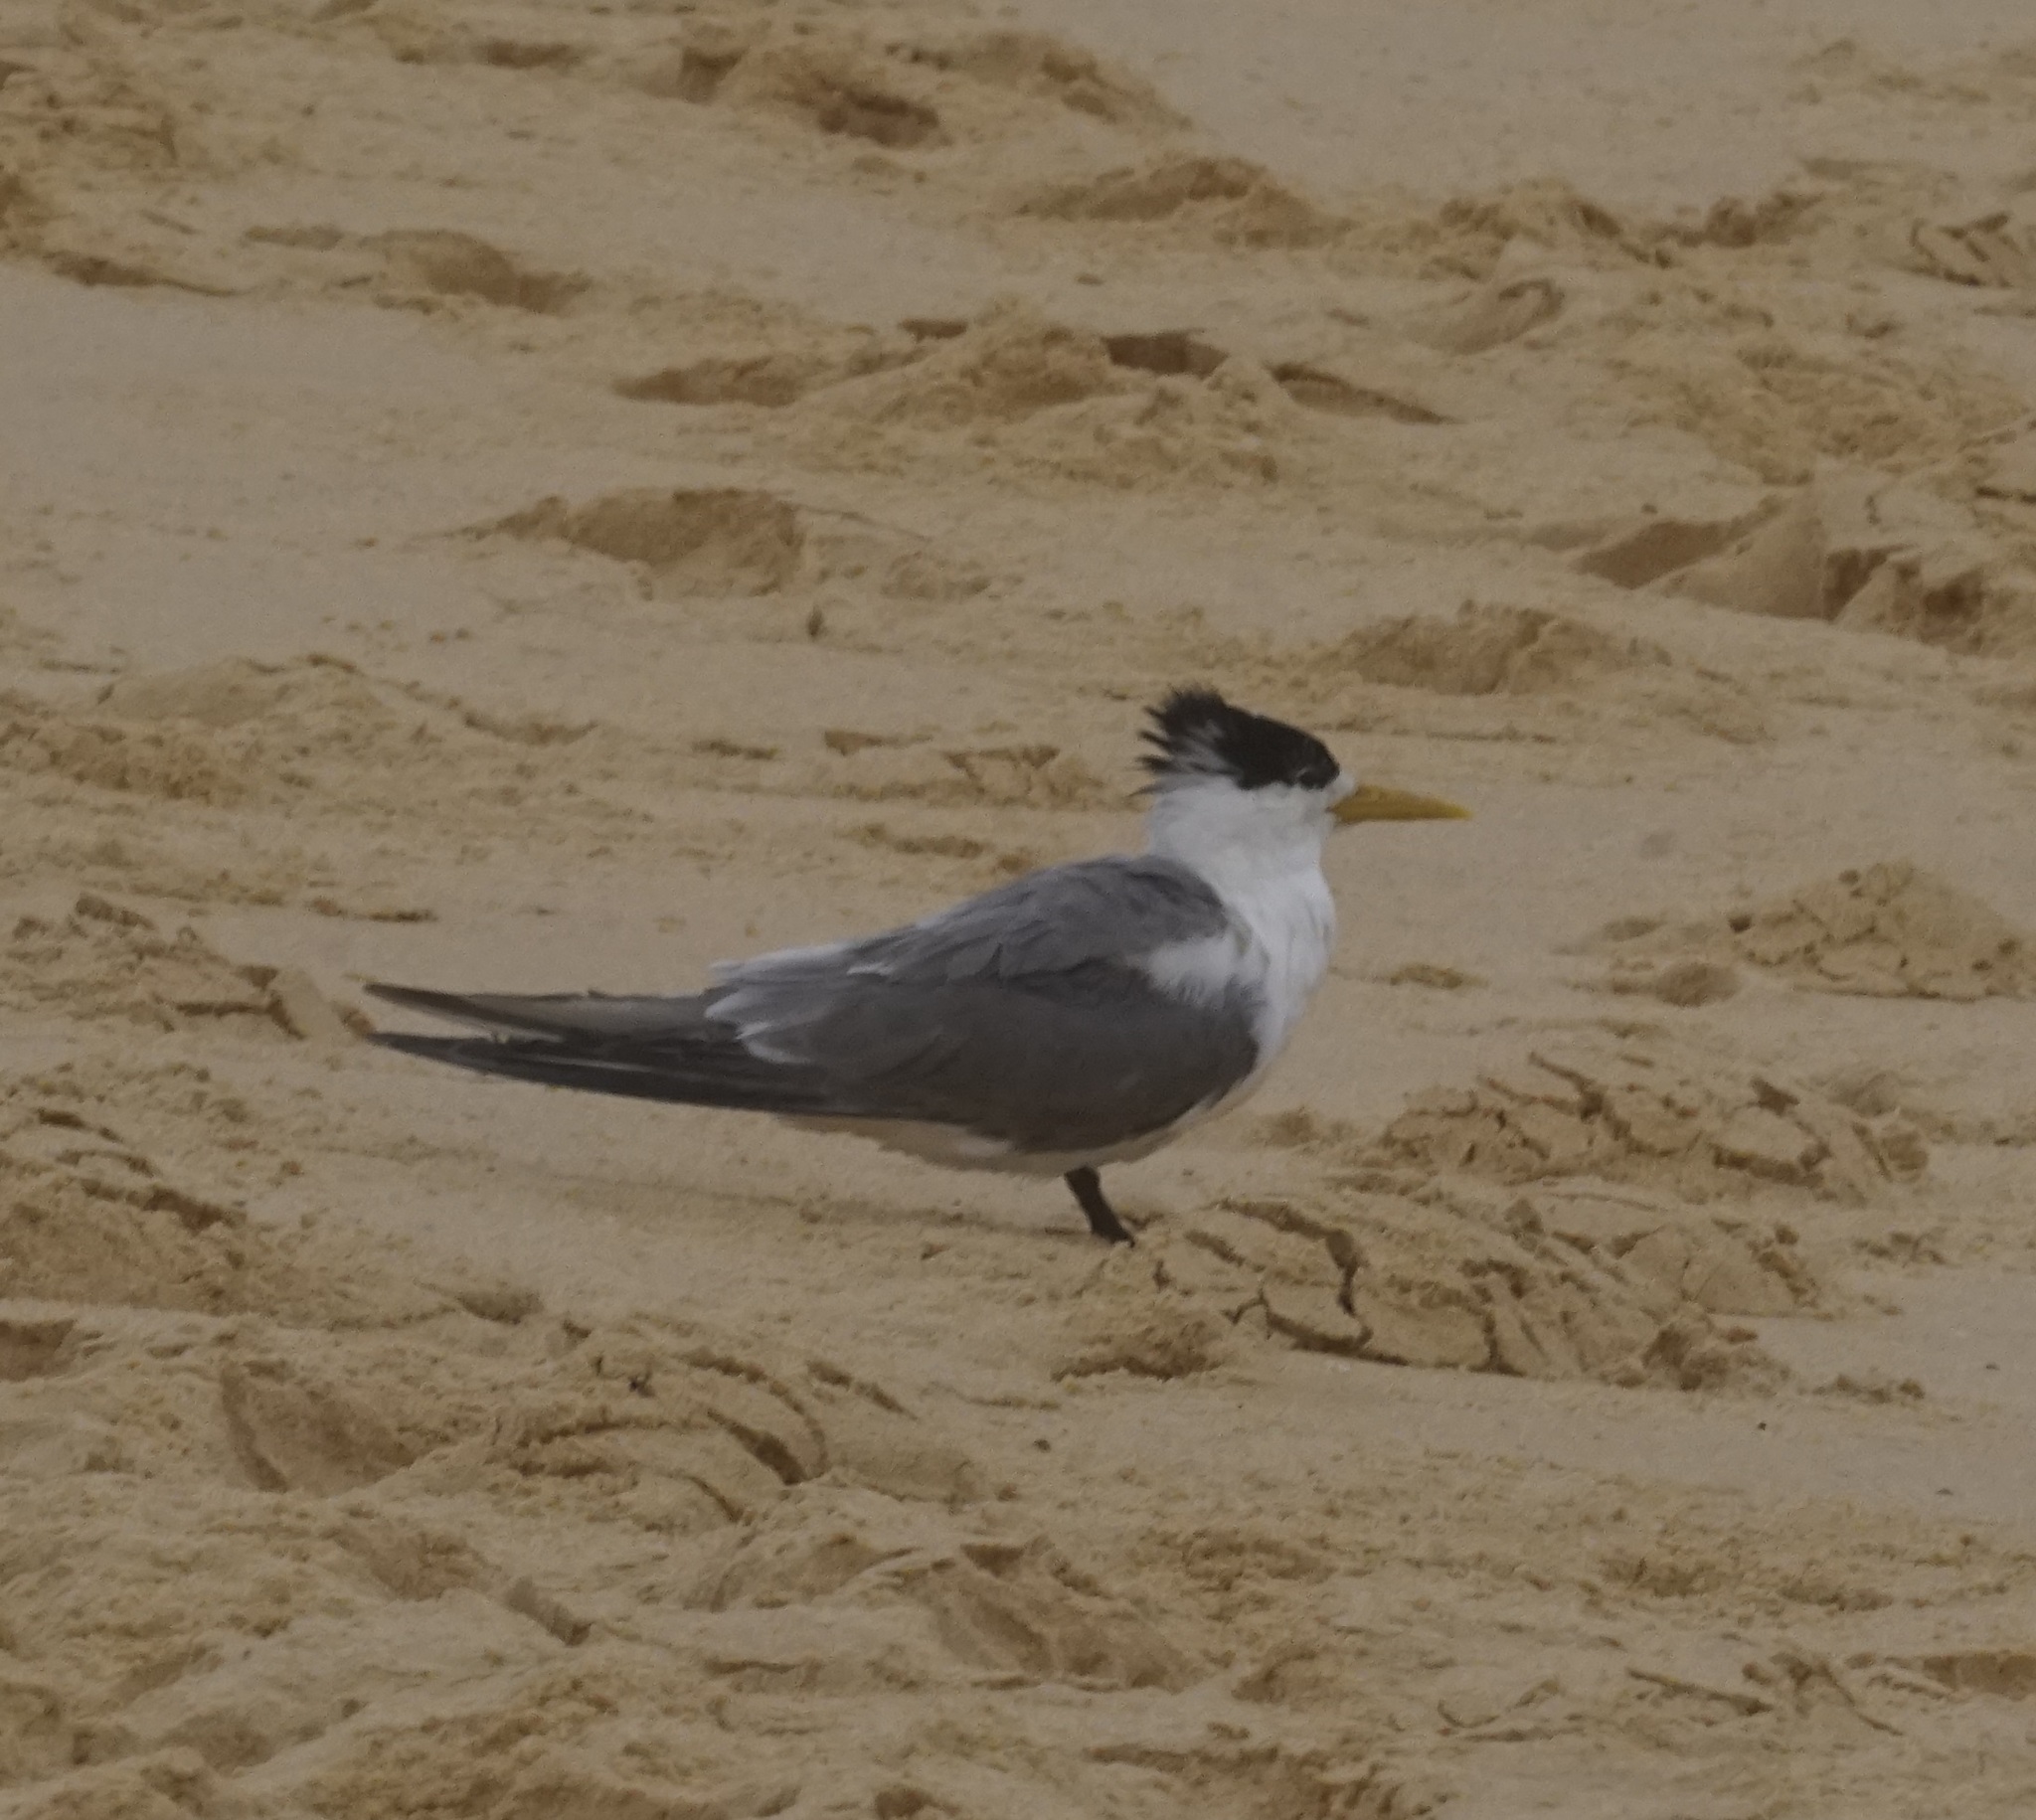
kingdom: Animalia
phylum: Chordata
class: Aves
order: Charadriiformes
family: Laridae
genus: Thalasseus
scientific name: Thalasseus bergii
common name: Greater crested tern
